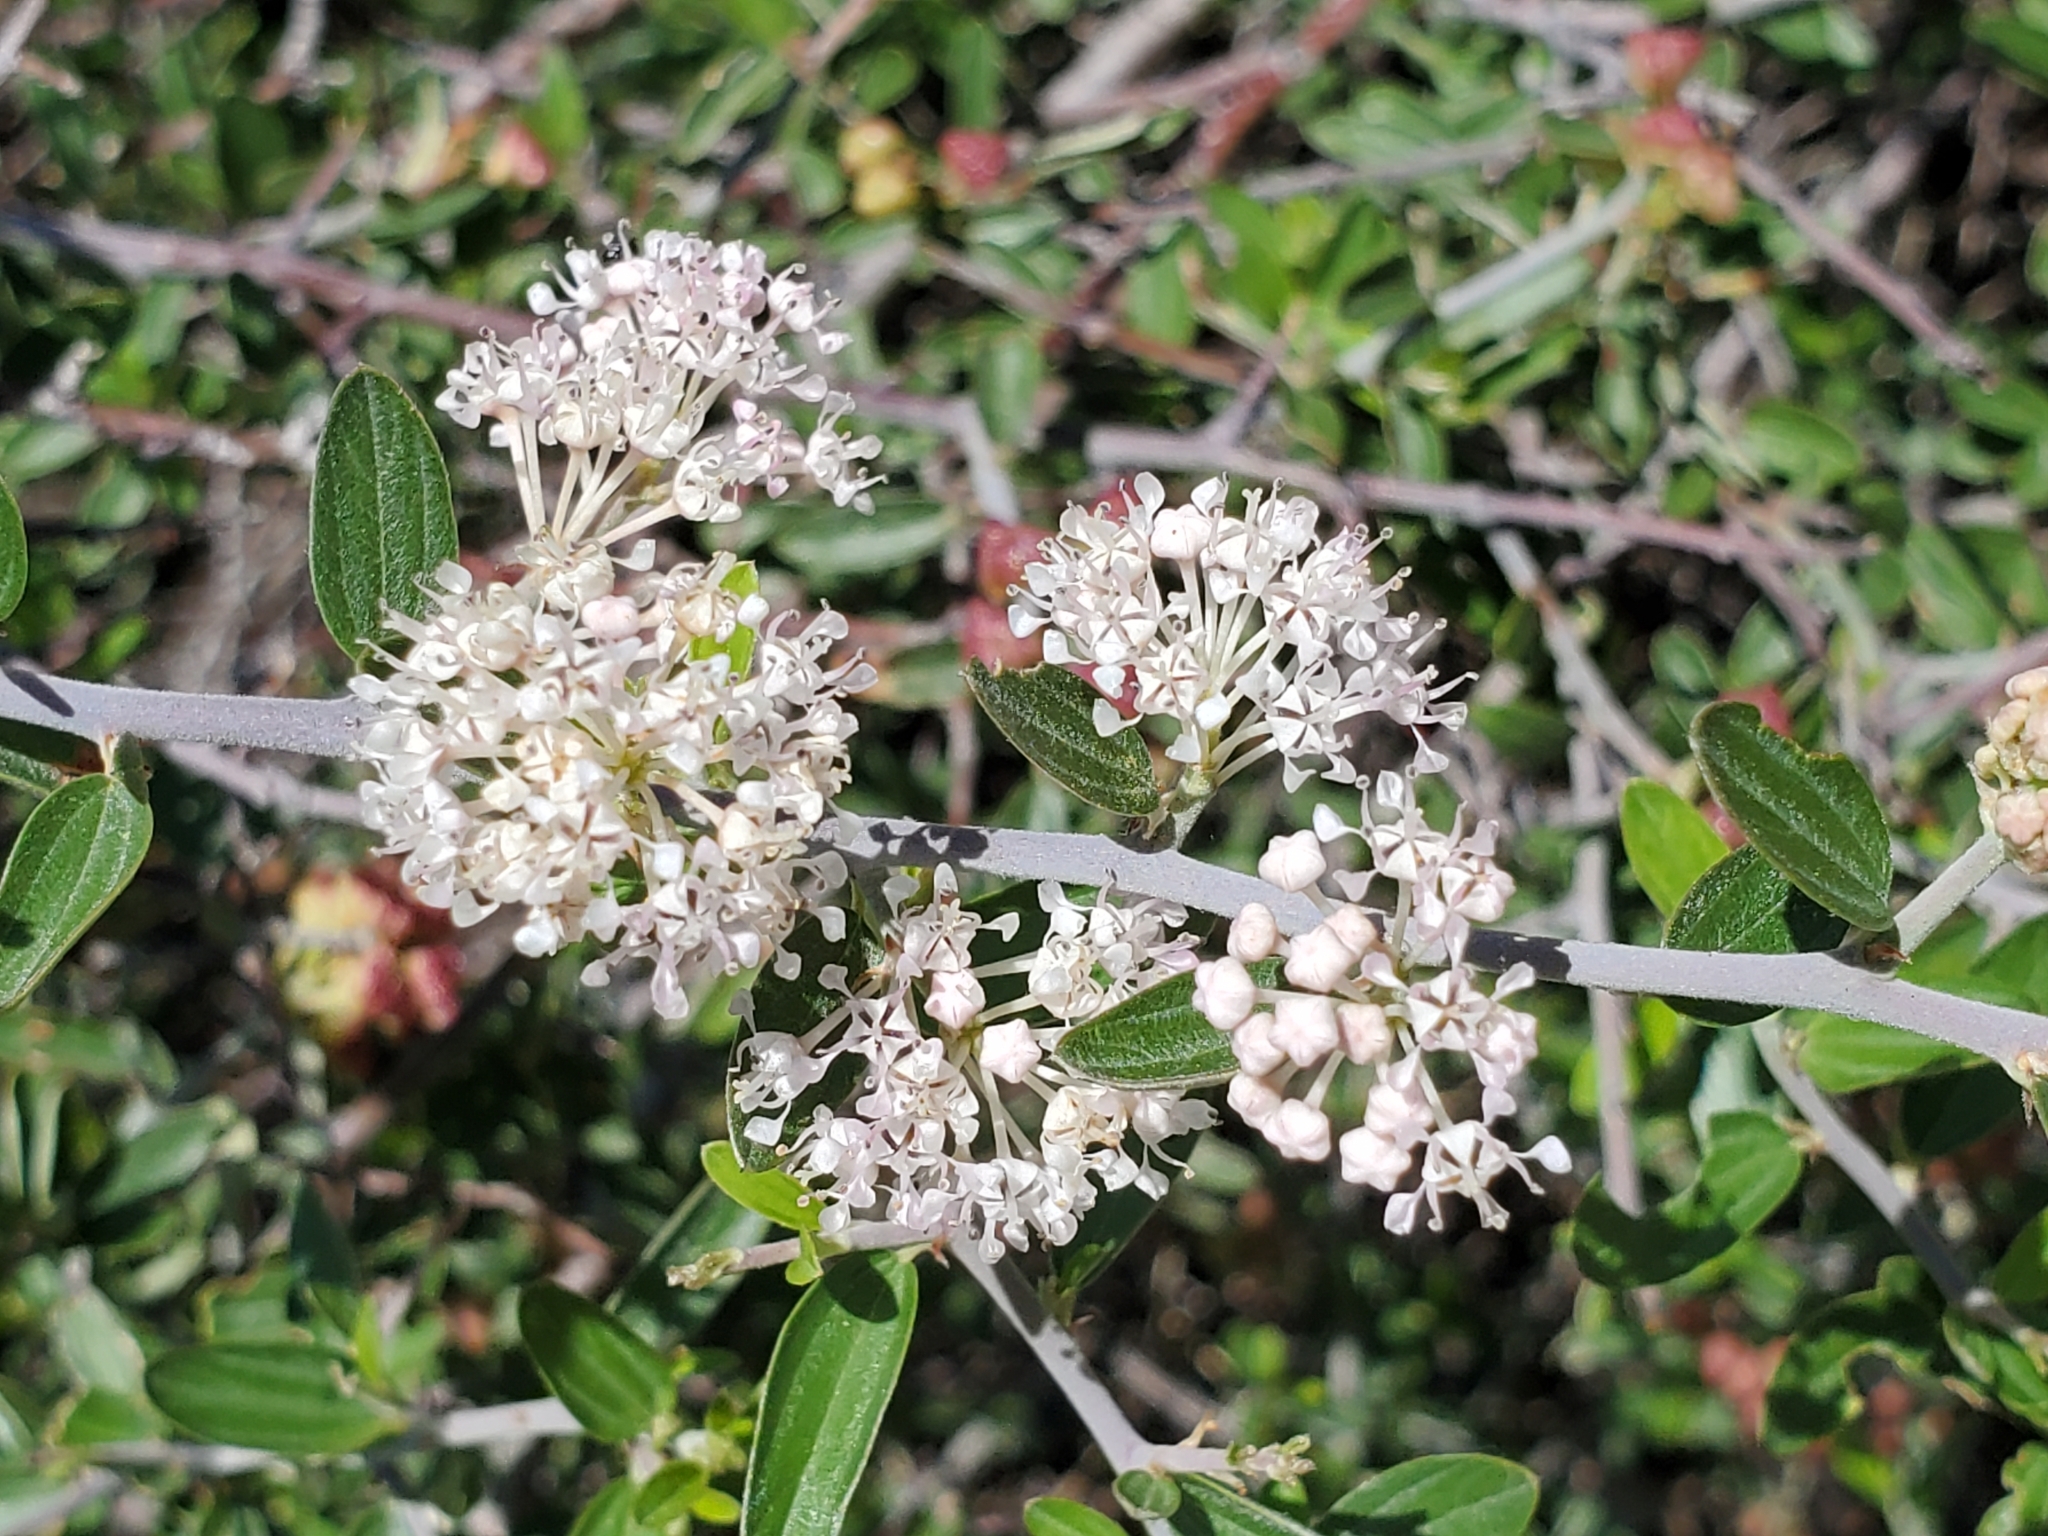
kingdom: Plantae
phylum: Tracheophyta
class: Magnoliopsida
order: Rosales
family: Rhamnaceae
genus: Ceanothus
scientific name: Ceanothus fendleri
